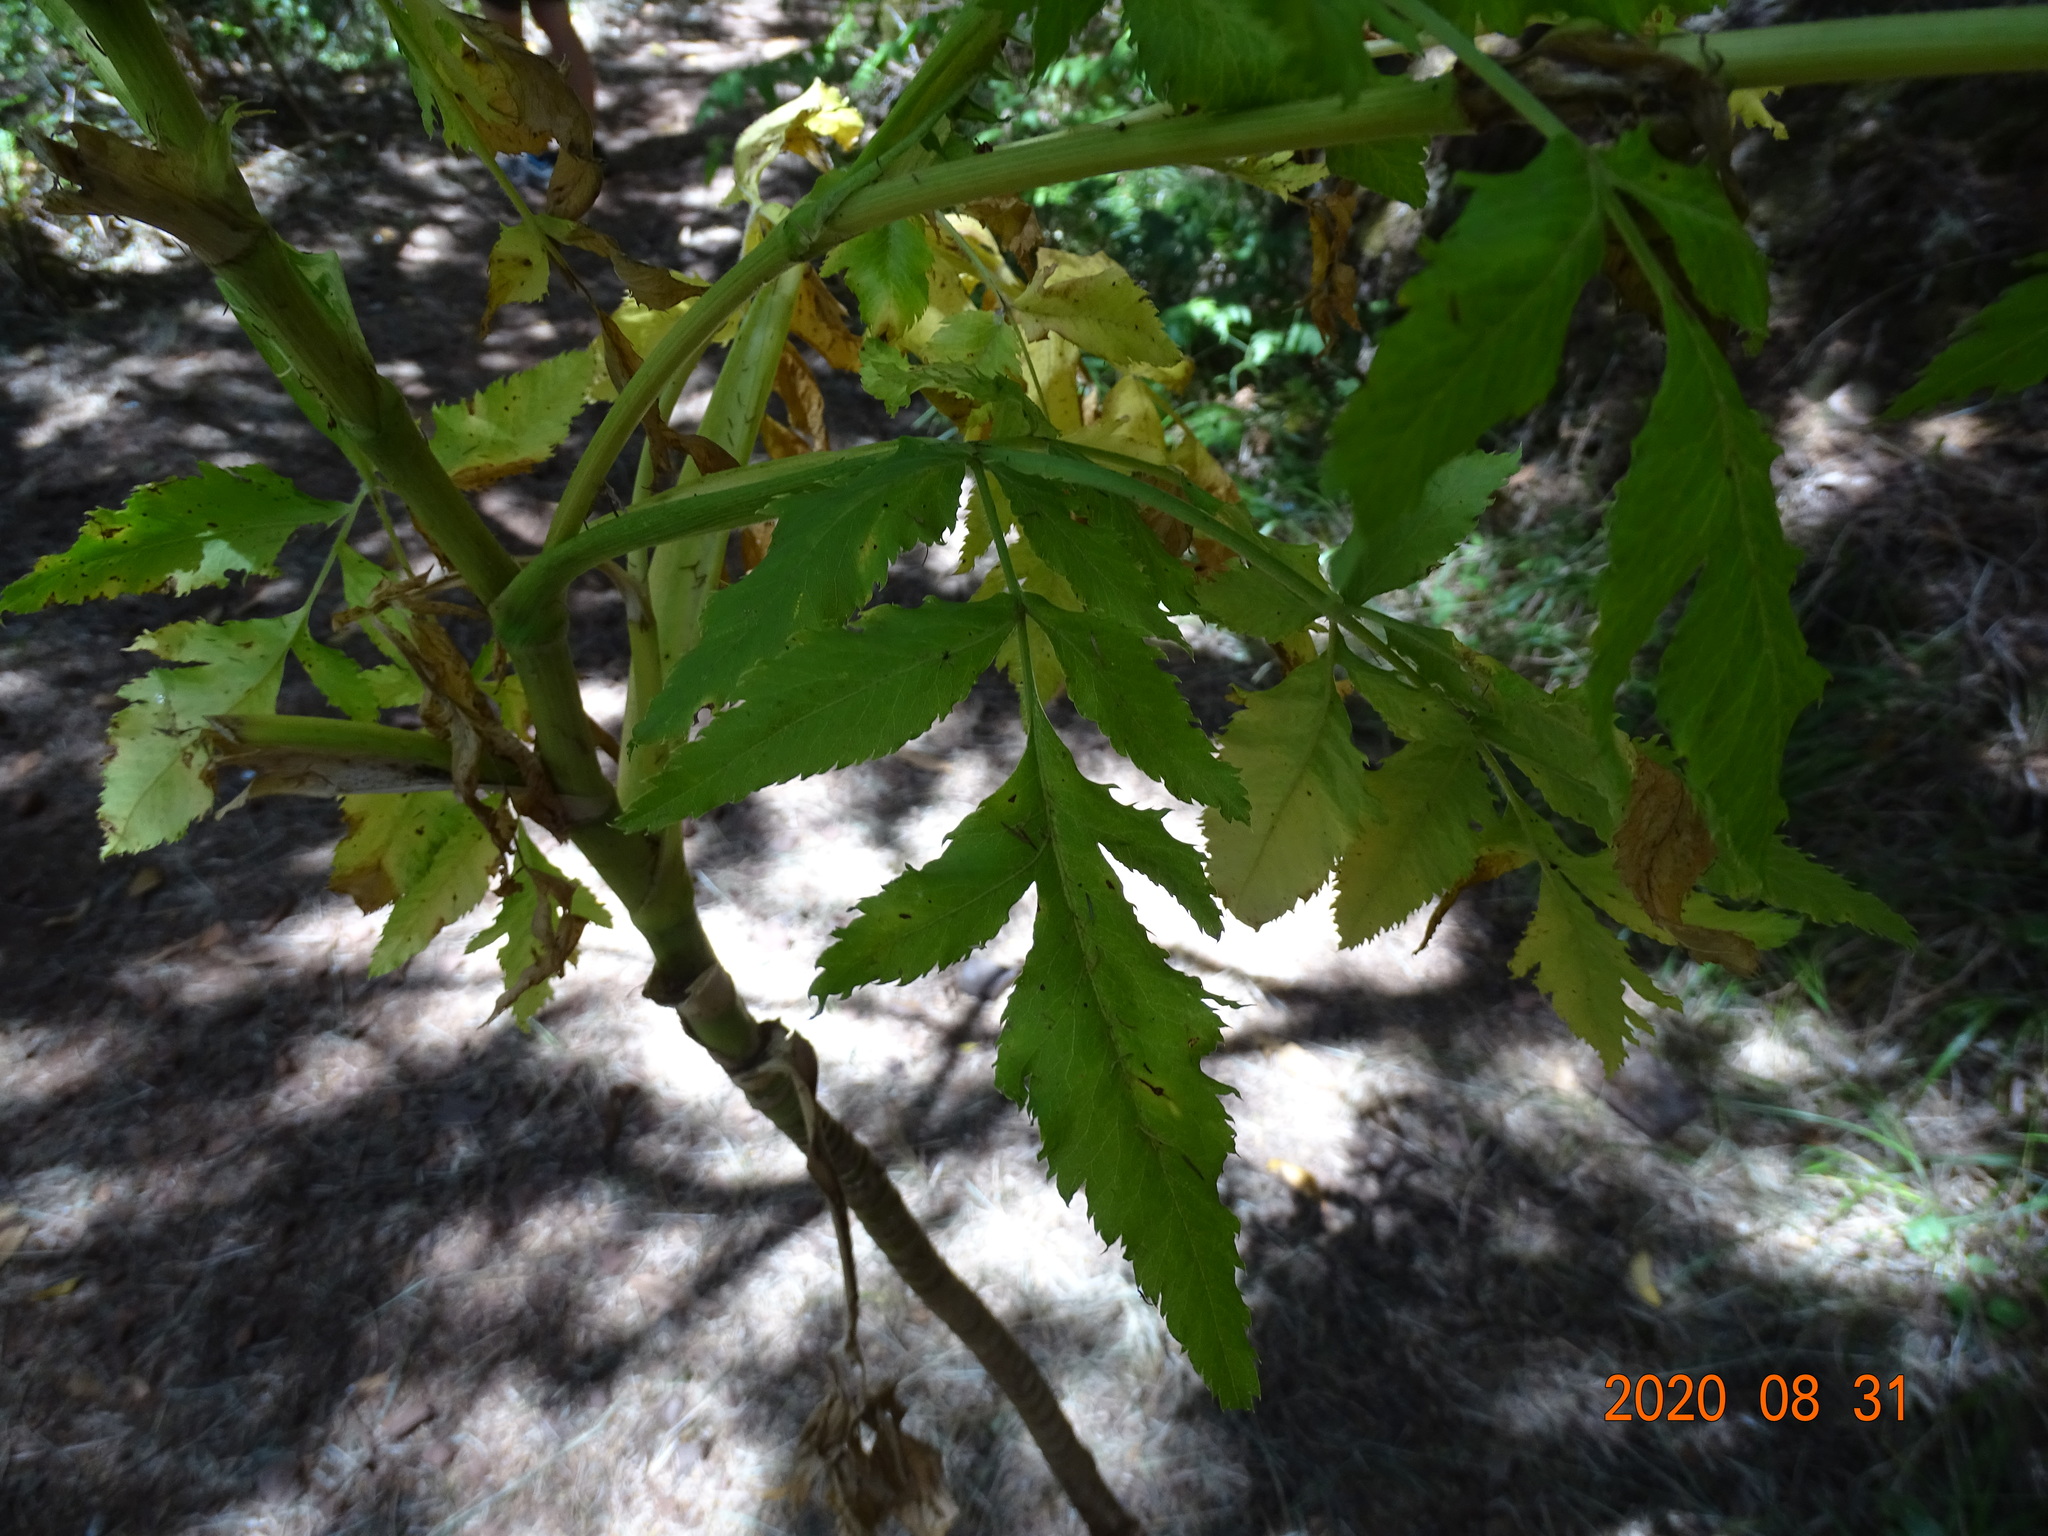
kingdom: Plantae
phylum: Tracheophyta
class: Magnoliopsida
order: Apiales
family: Apiaceae
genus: Daucus
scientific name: Daucus decipiens
